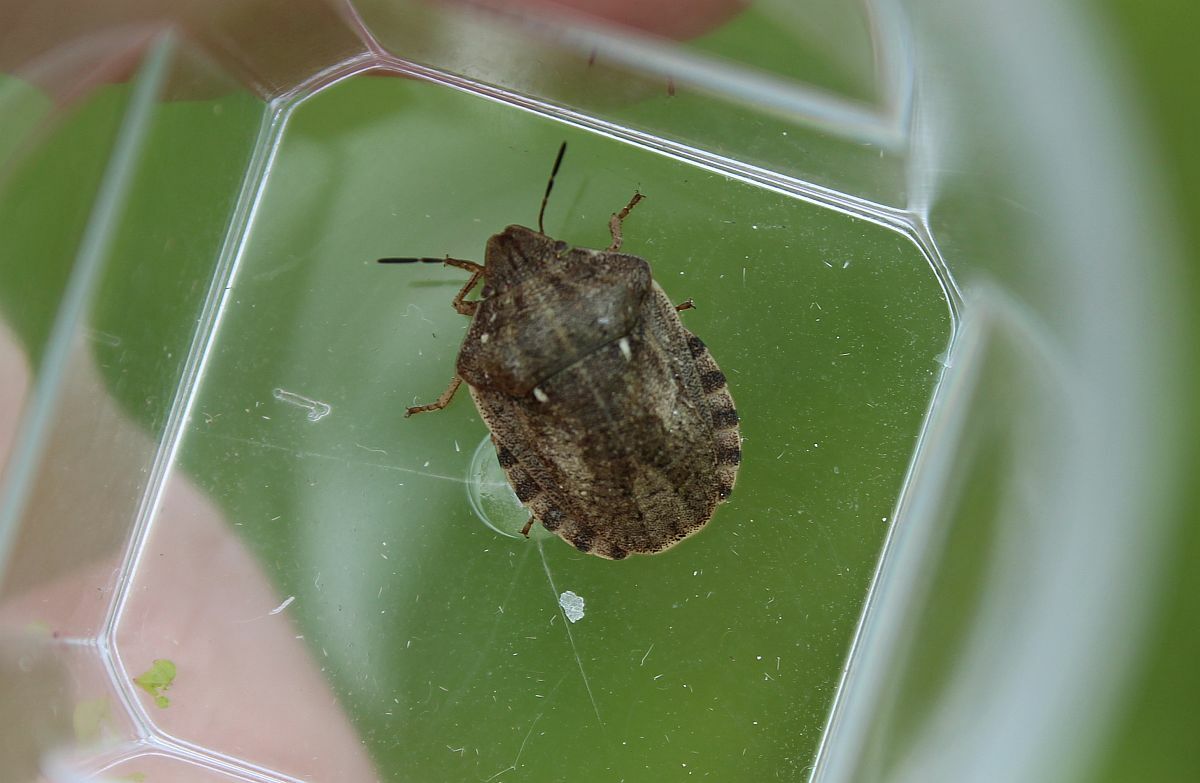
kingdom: Animalia
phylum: Arthropoda
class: Insecta
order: Hemiptera
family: Scutelleridae
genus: Eurygaster
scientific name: Eurygaster testudinaria
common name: Tortoise bug
